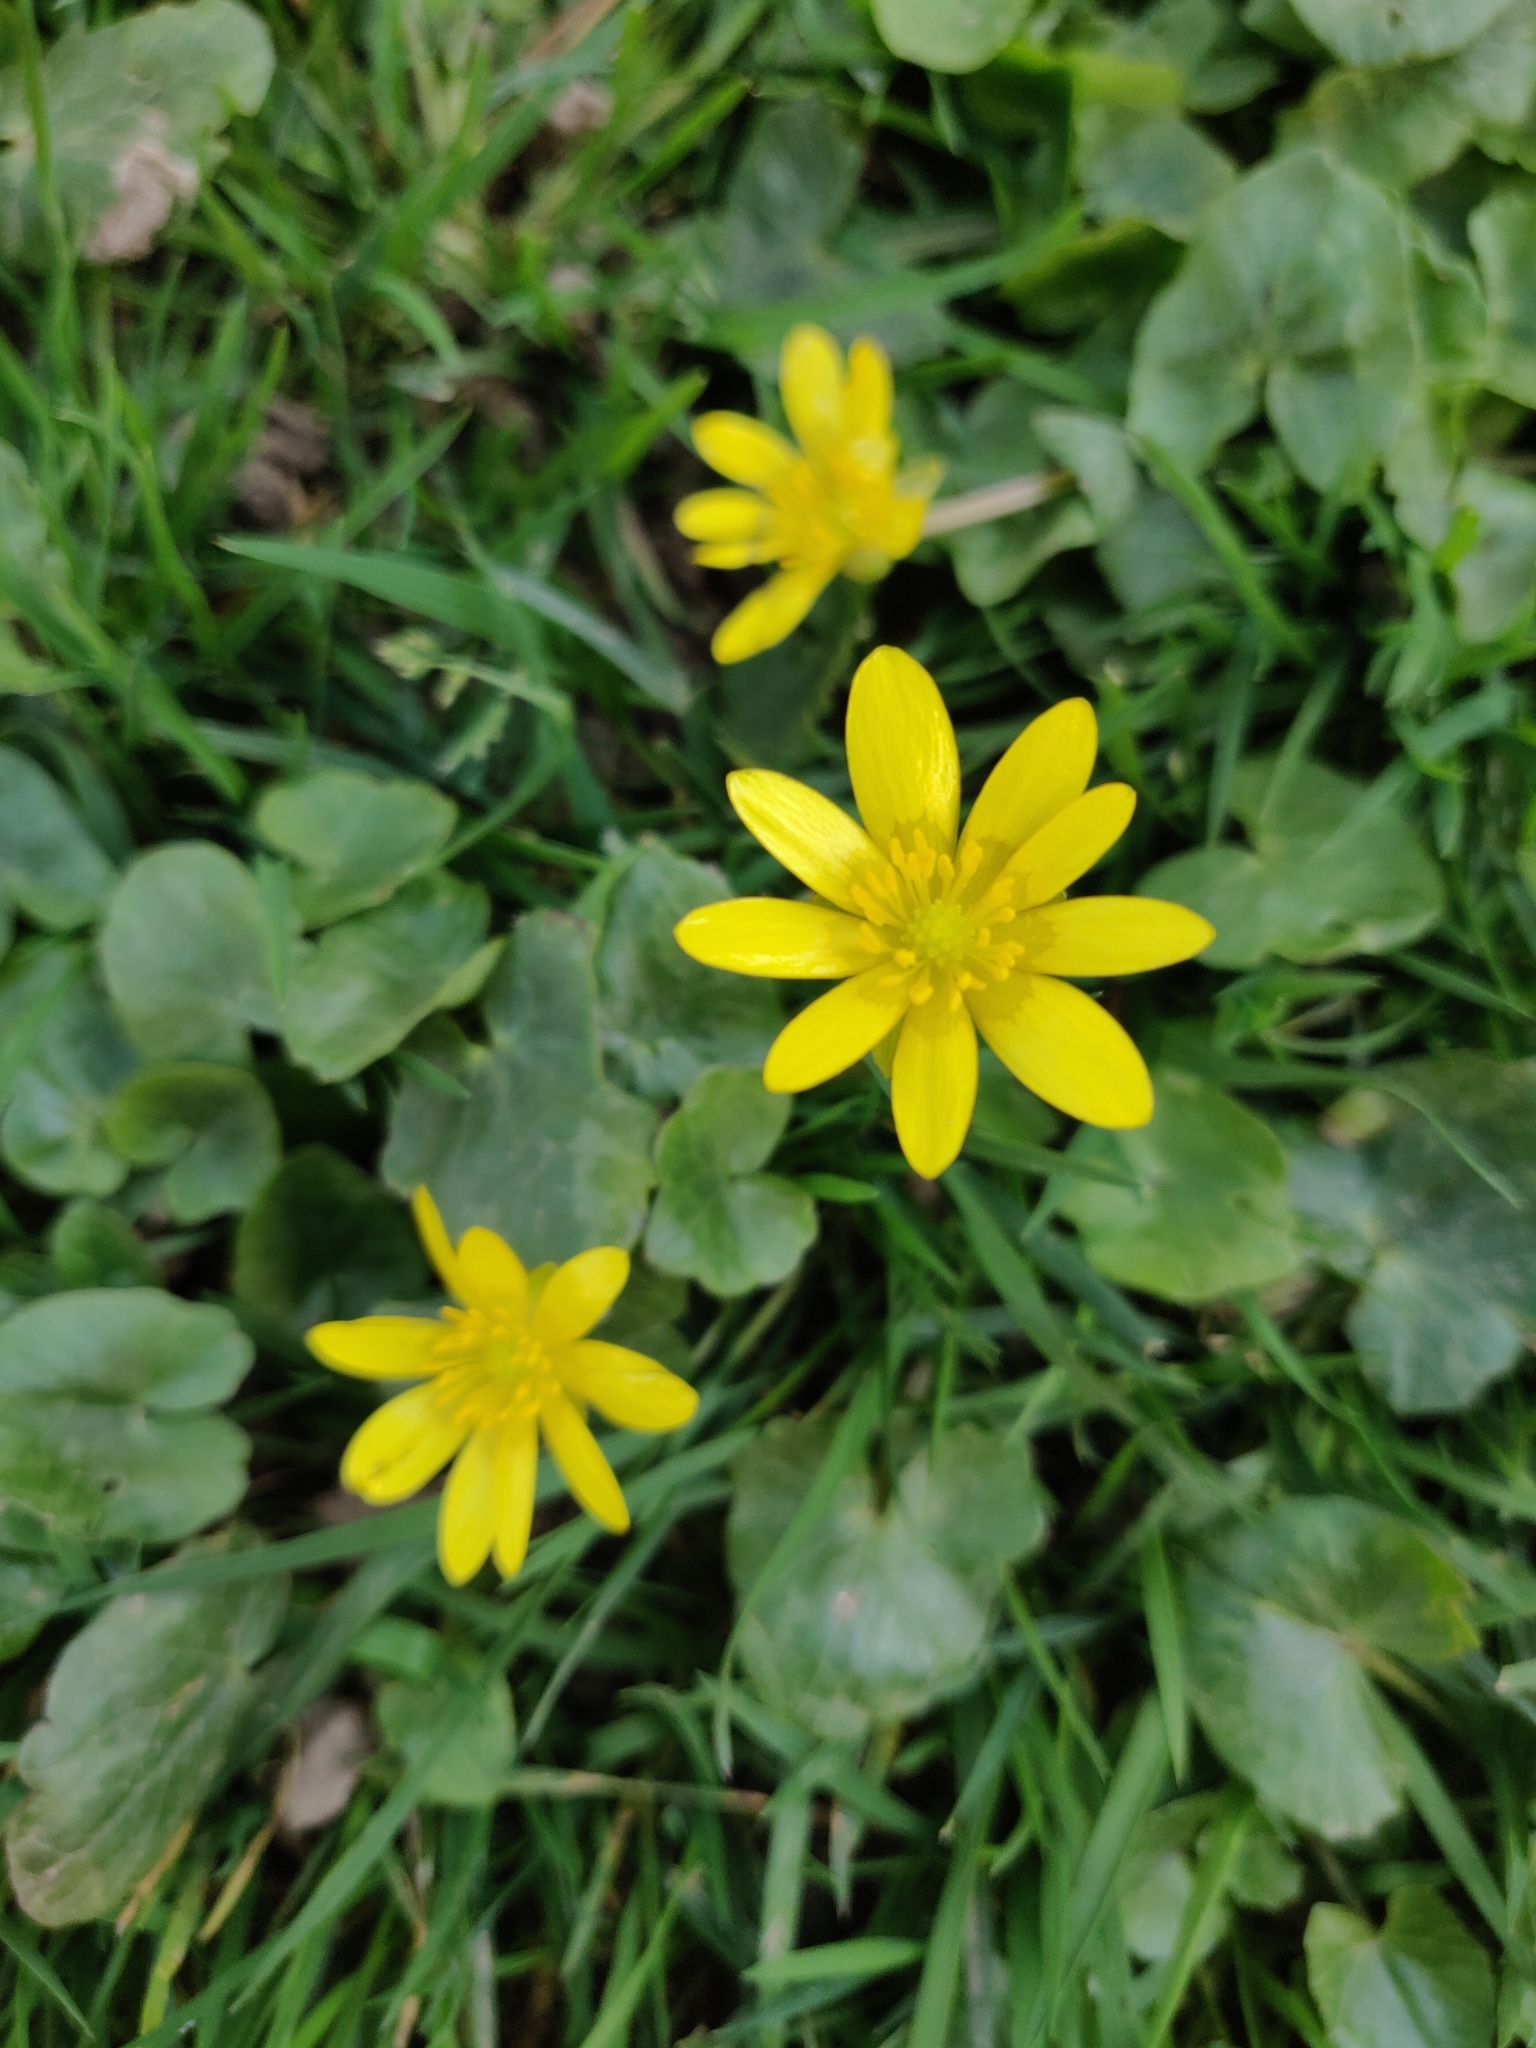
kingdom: Plantae
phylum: Tracheophyta
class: Magnoliopsida
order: Ranunculales
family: Ranunculaceae
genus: Ficaria
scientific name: Ficaria verna
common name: Lesser celandine
